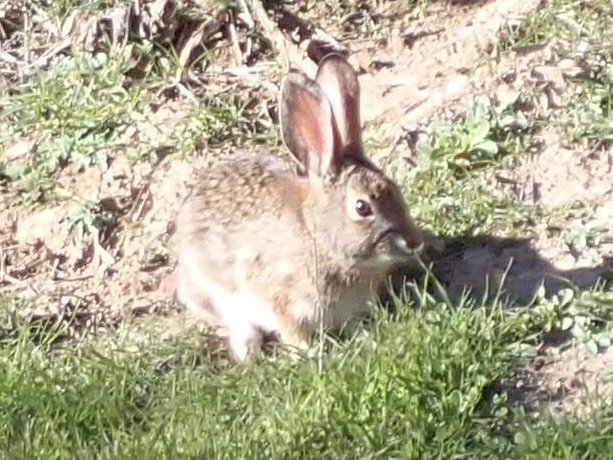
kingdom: Animalia
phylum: Chordata
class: Mammalia
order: Lagomorpha
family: Leporidae
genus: Sylvilagus
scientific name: Sylvilagus audubonii
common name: Desert cottontail
